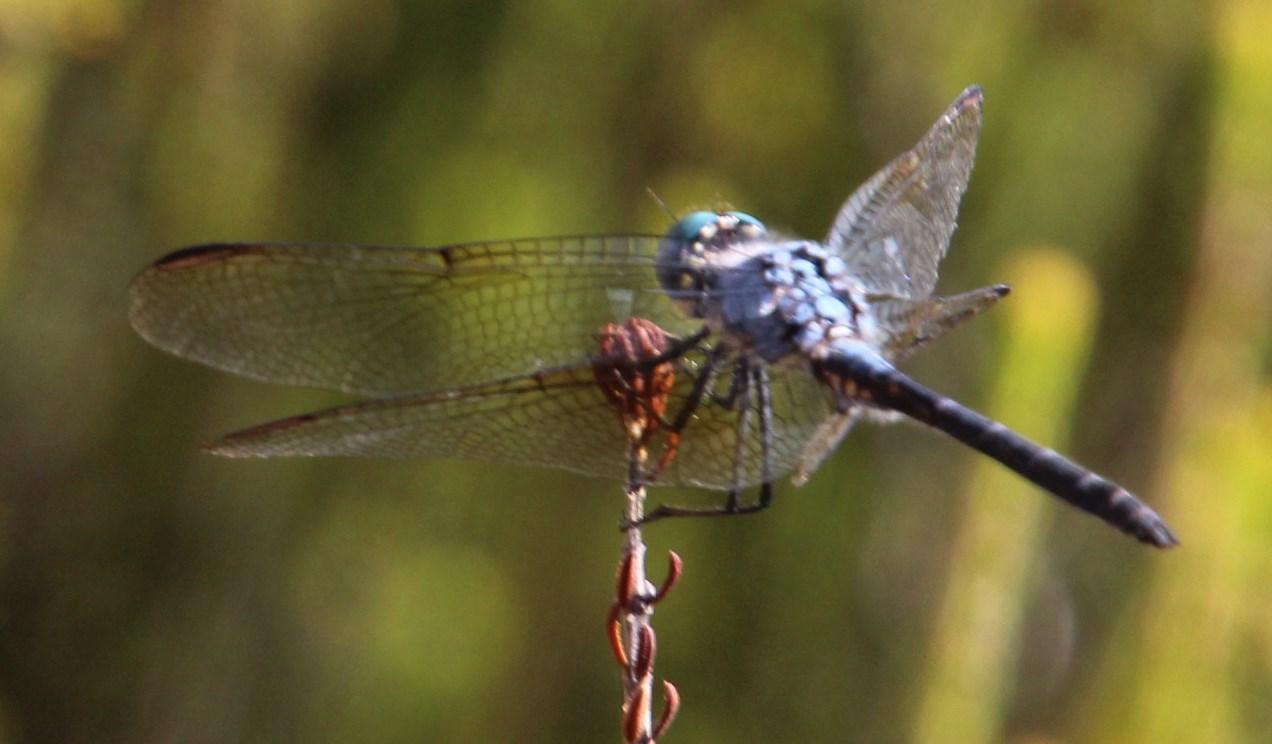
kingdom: Animalia
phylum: Arthropoda
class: Insecta
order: Odonata
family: Libellulidae
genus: Trithemis
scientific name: Trithemis stictica
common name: Jaunty dropwing
